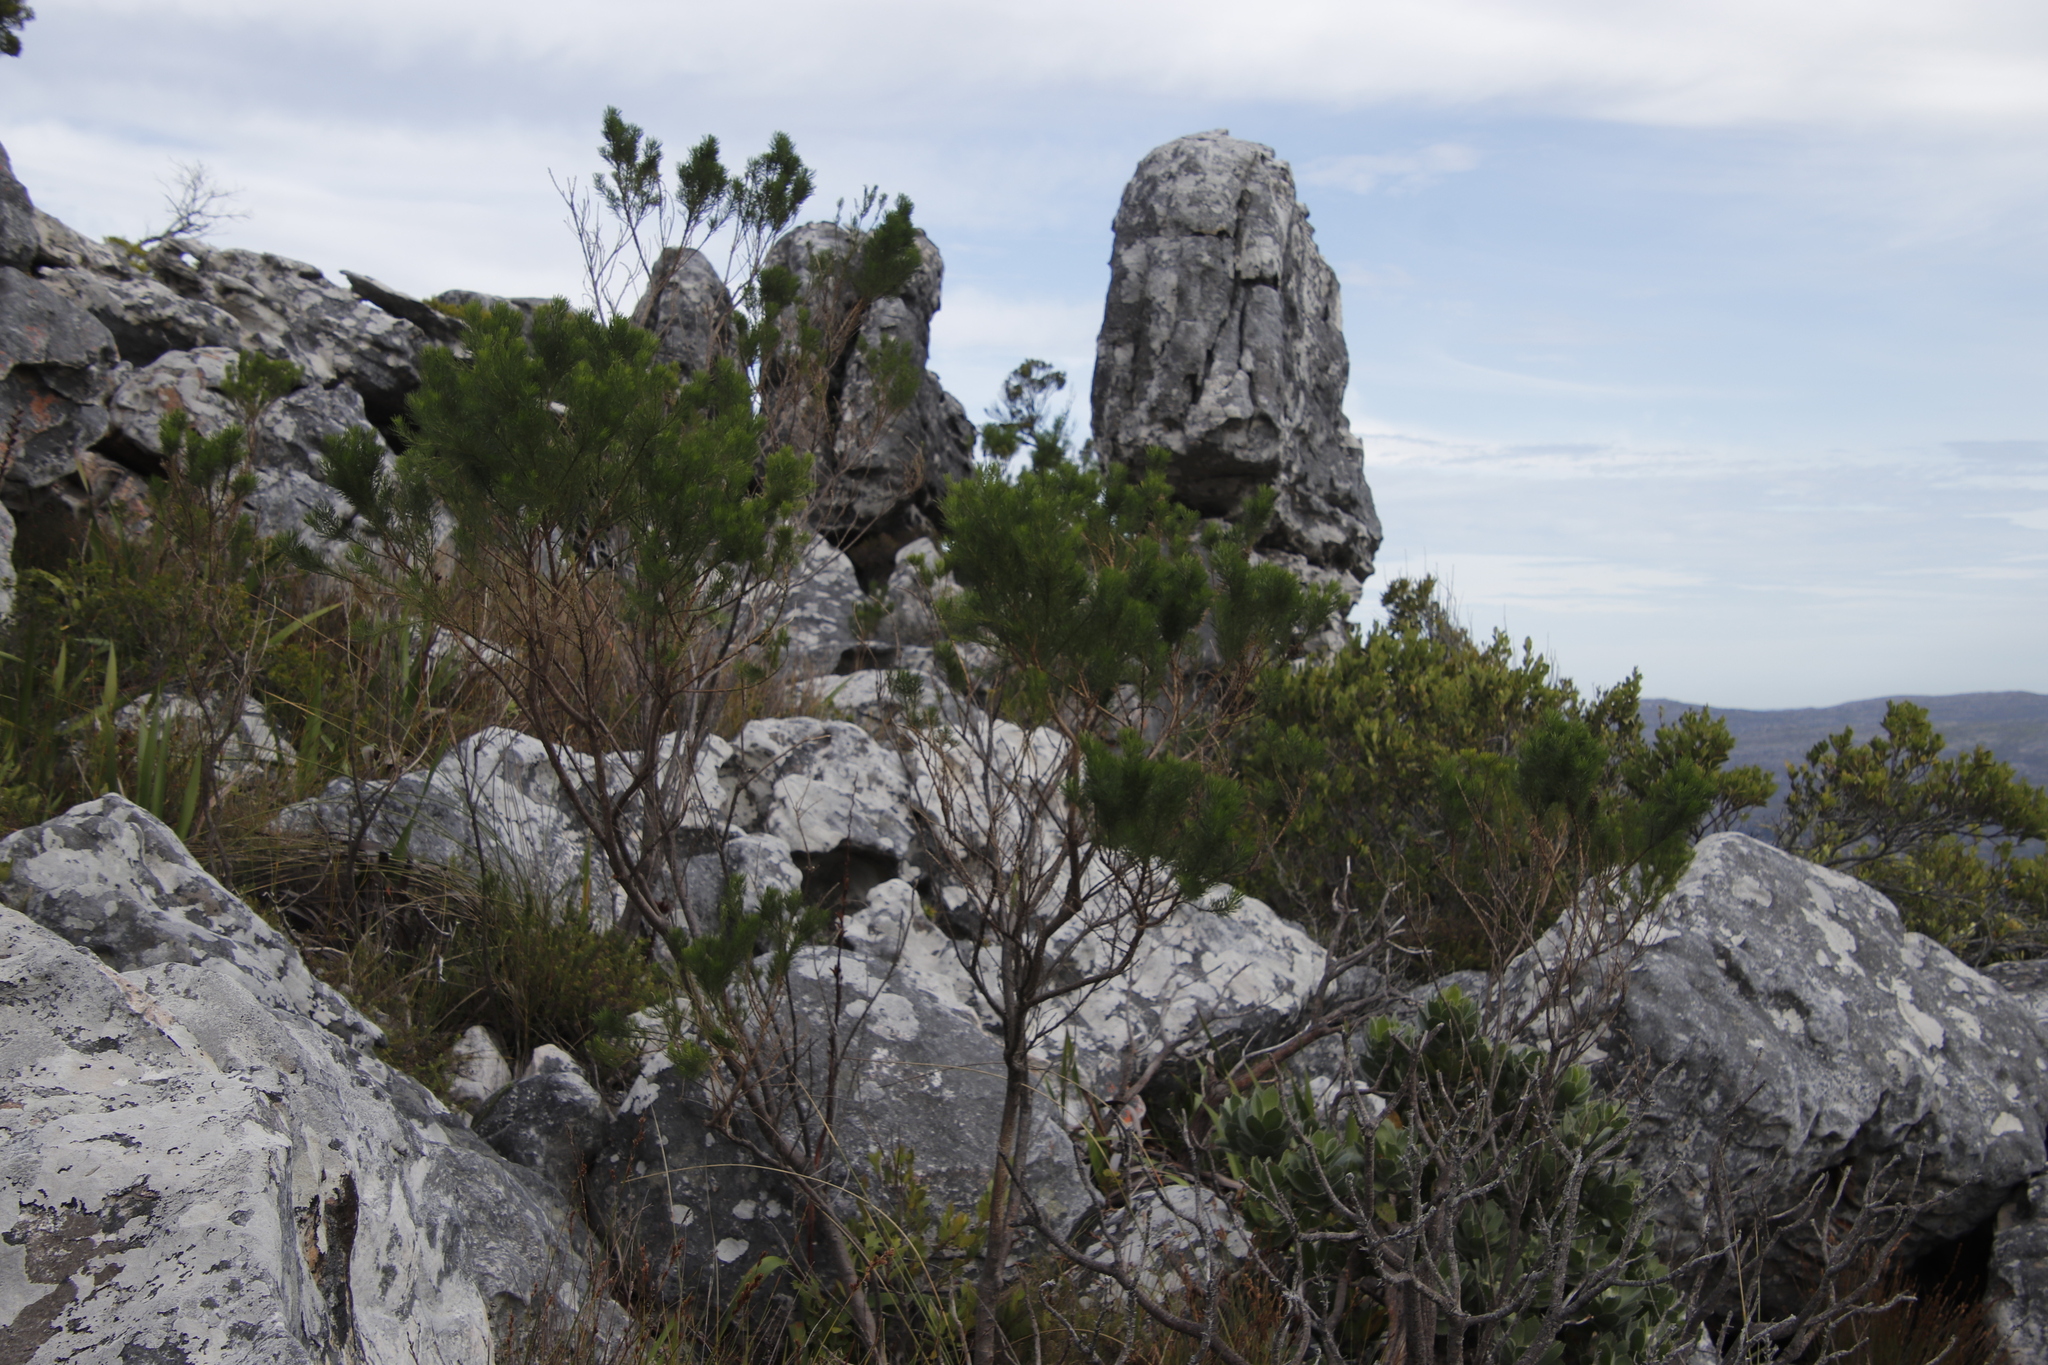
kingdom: Plantae
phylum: Tracheophyta
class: Magnoliopsida
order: Fabales
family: Fabaceae
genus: Psoralea
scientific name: Psoralea pinnata
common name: African scurfpea
